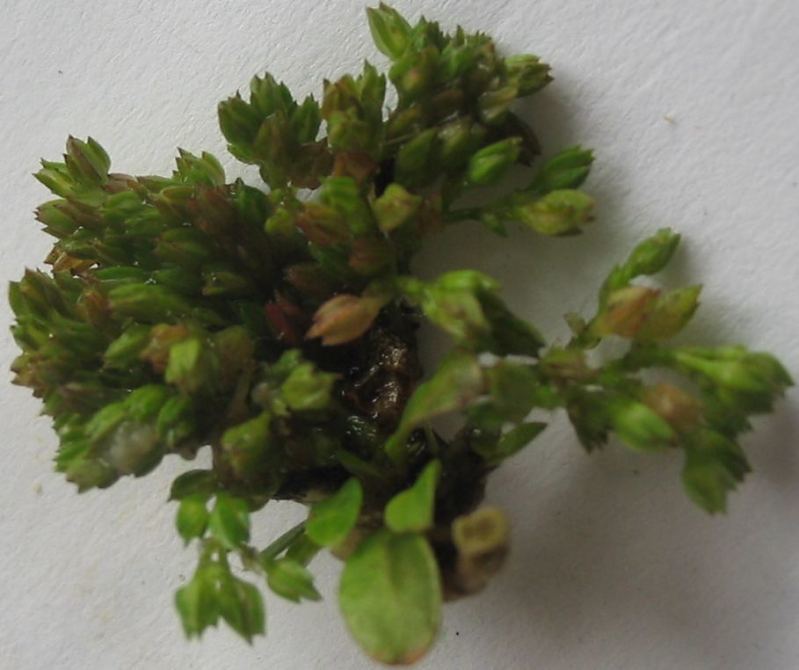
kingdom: Plantae
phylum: Tracheophyta
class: Magnoliopsida
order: Caryophyllales
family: Caryophyllaceae
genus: Polycarpon
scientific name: Polycarpon tetraphyllum
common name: Four-leaved all-seed
